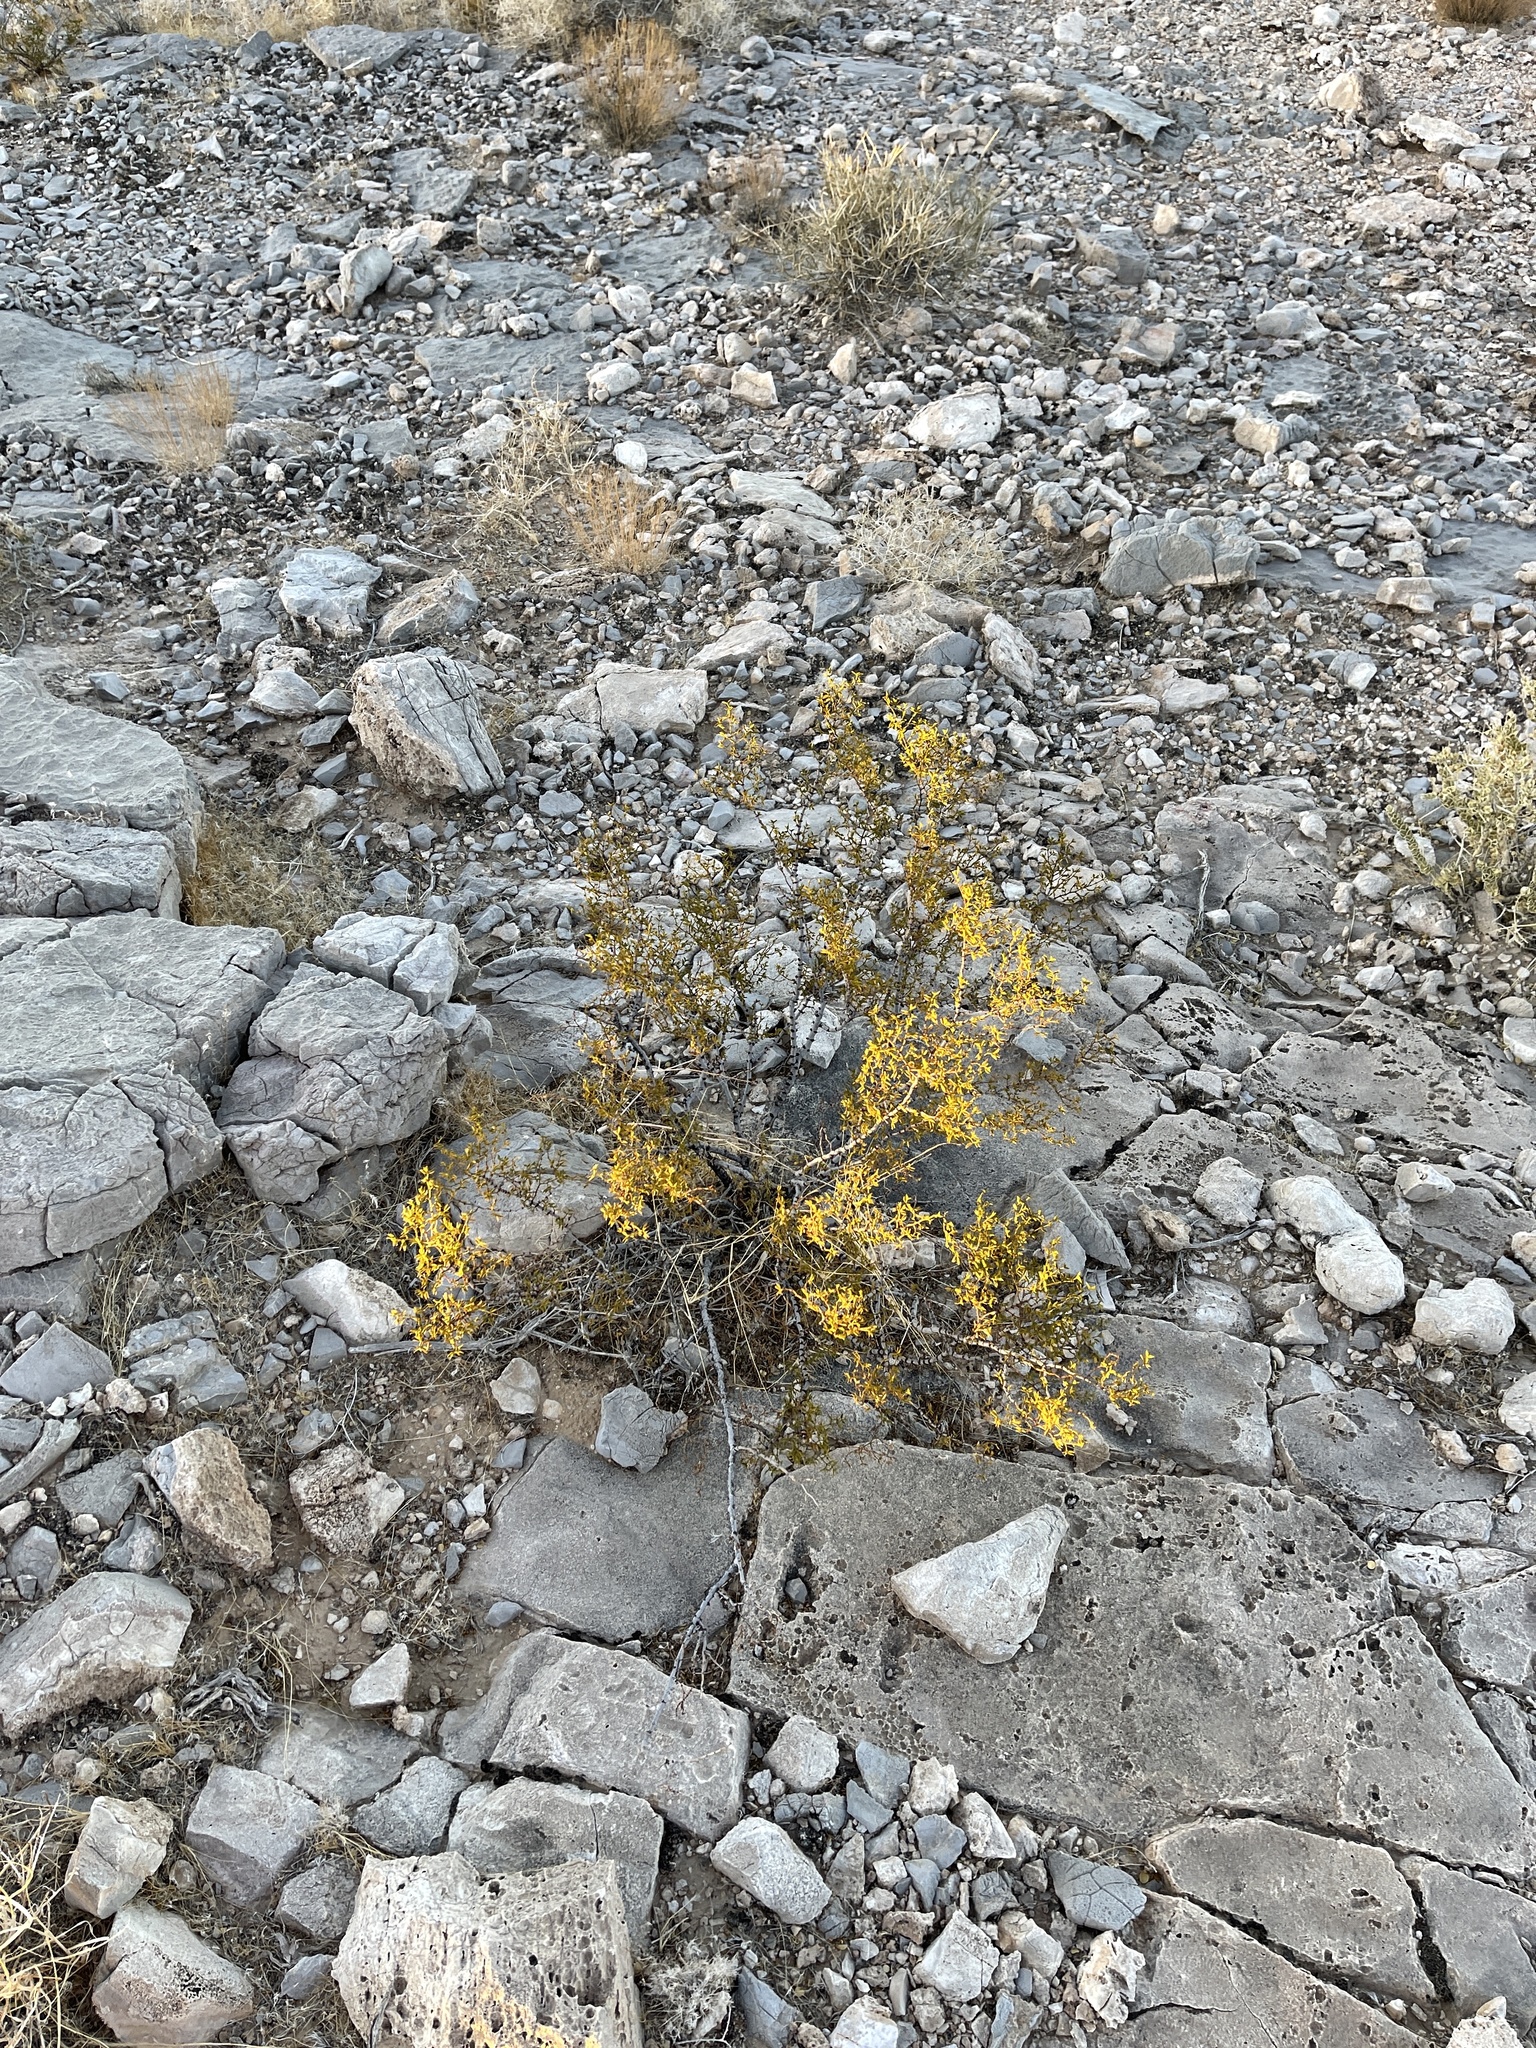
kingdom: Plantae
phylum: Tracheophyta
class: Magnoliopsida
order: Zygophyllales
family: Zygophyllaceae
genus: Larrea
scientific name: Larrea tridentata
